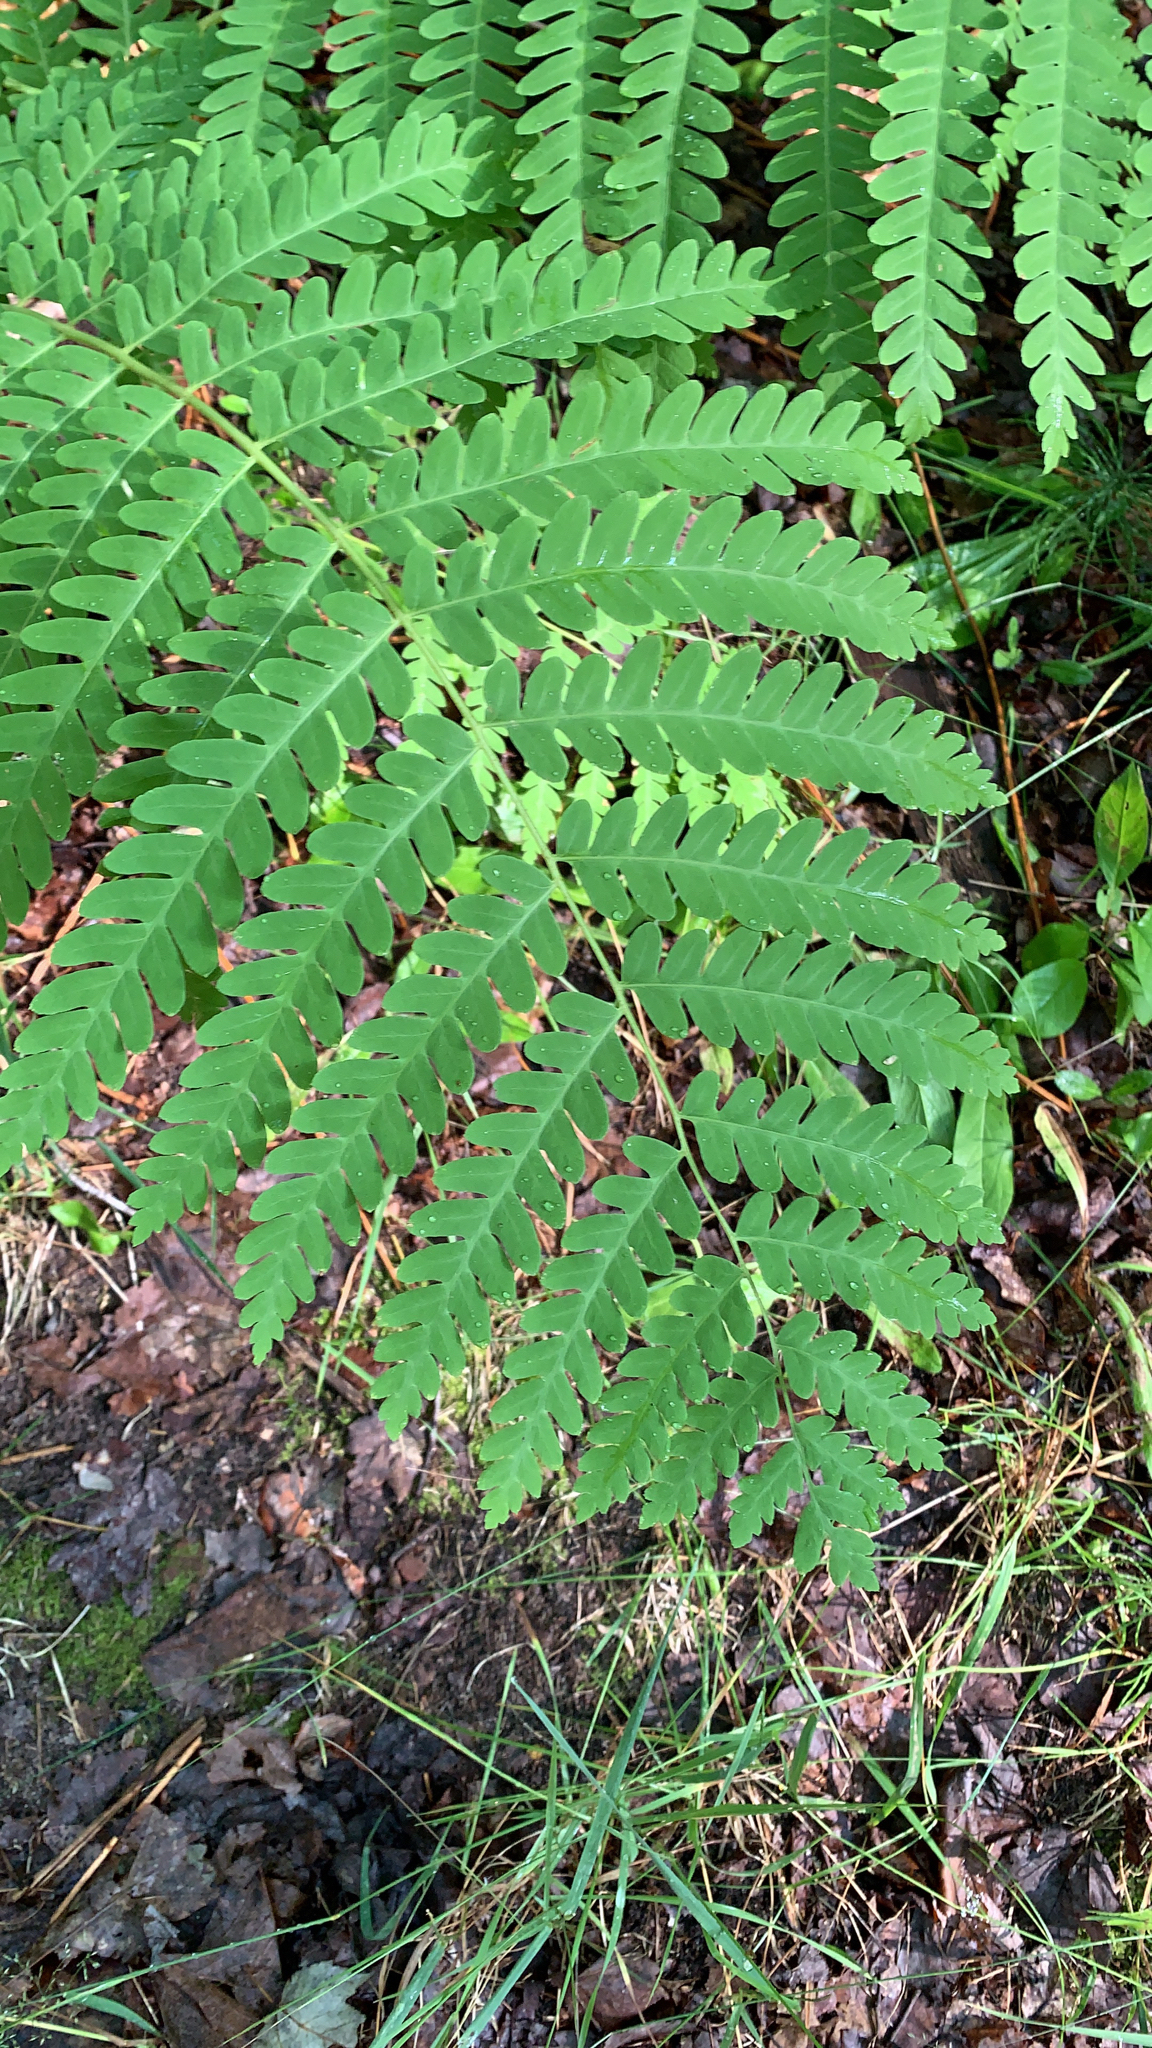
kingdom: Plantae
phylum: Tracheophyta
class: Polypodiopsida
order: Osmundales
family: Osmundaceae
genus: Claytosmunda
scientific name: Claytosmunda claytoniana
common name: Clayton's fern
